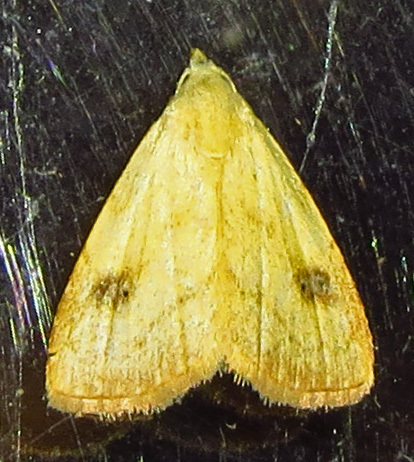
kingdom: Animalia
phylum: Arthropoda
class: Insecta
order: Lepidoptera
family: Erebidae
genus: Rivula
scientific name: Rivula propinqualis
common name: Spotted grass moth
